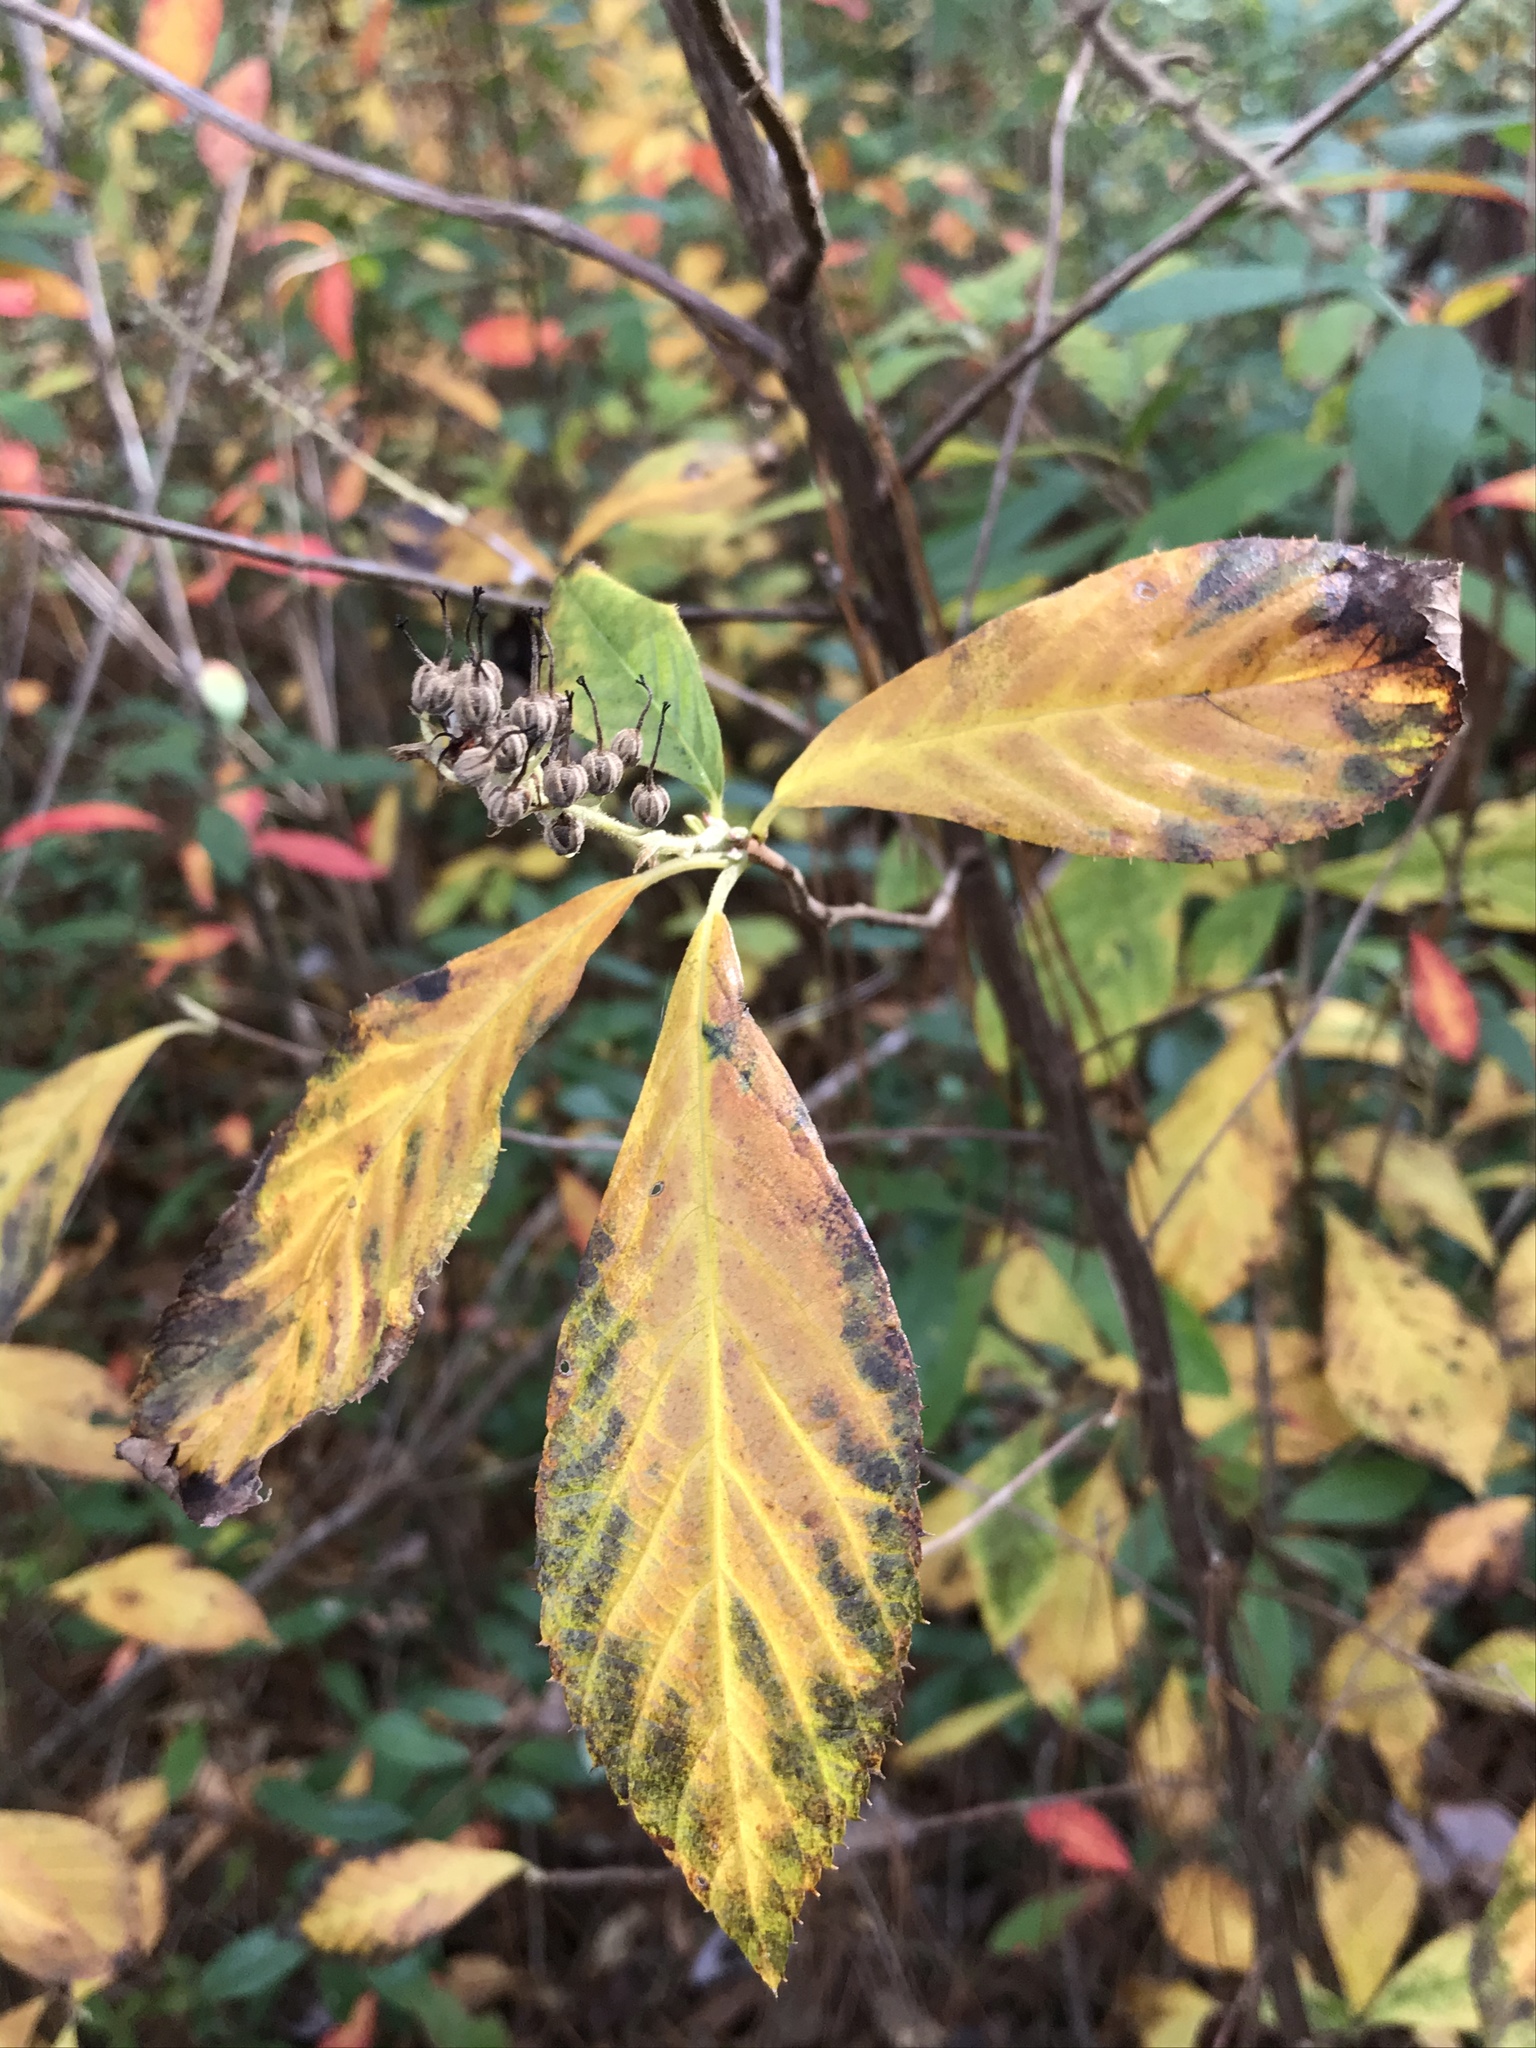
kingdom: Plantae
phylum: Tracheophyta
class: Magnoliopsida
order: Ericales
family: Clethraceae
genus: Clethra
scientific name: Clethra alnifolia
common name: Sweet pepperbush
